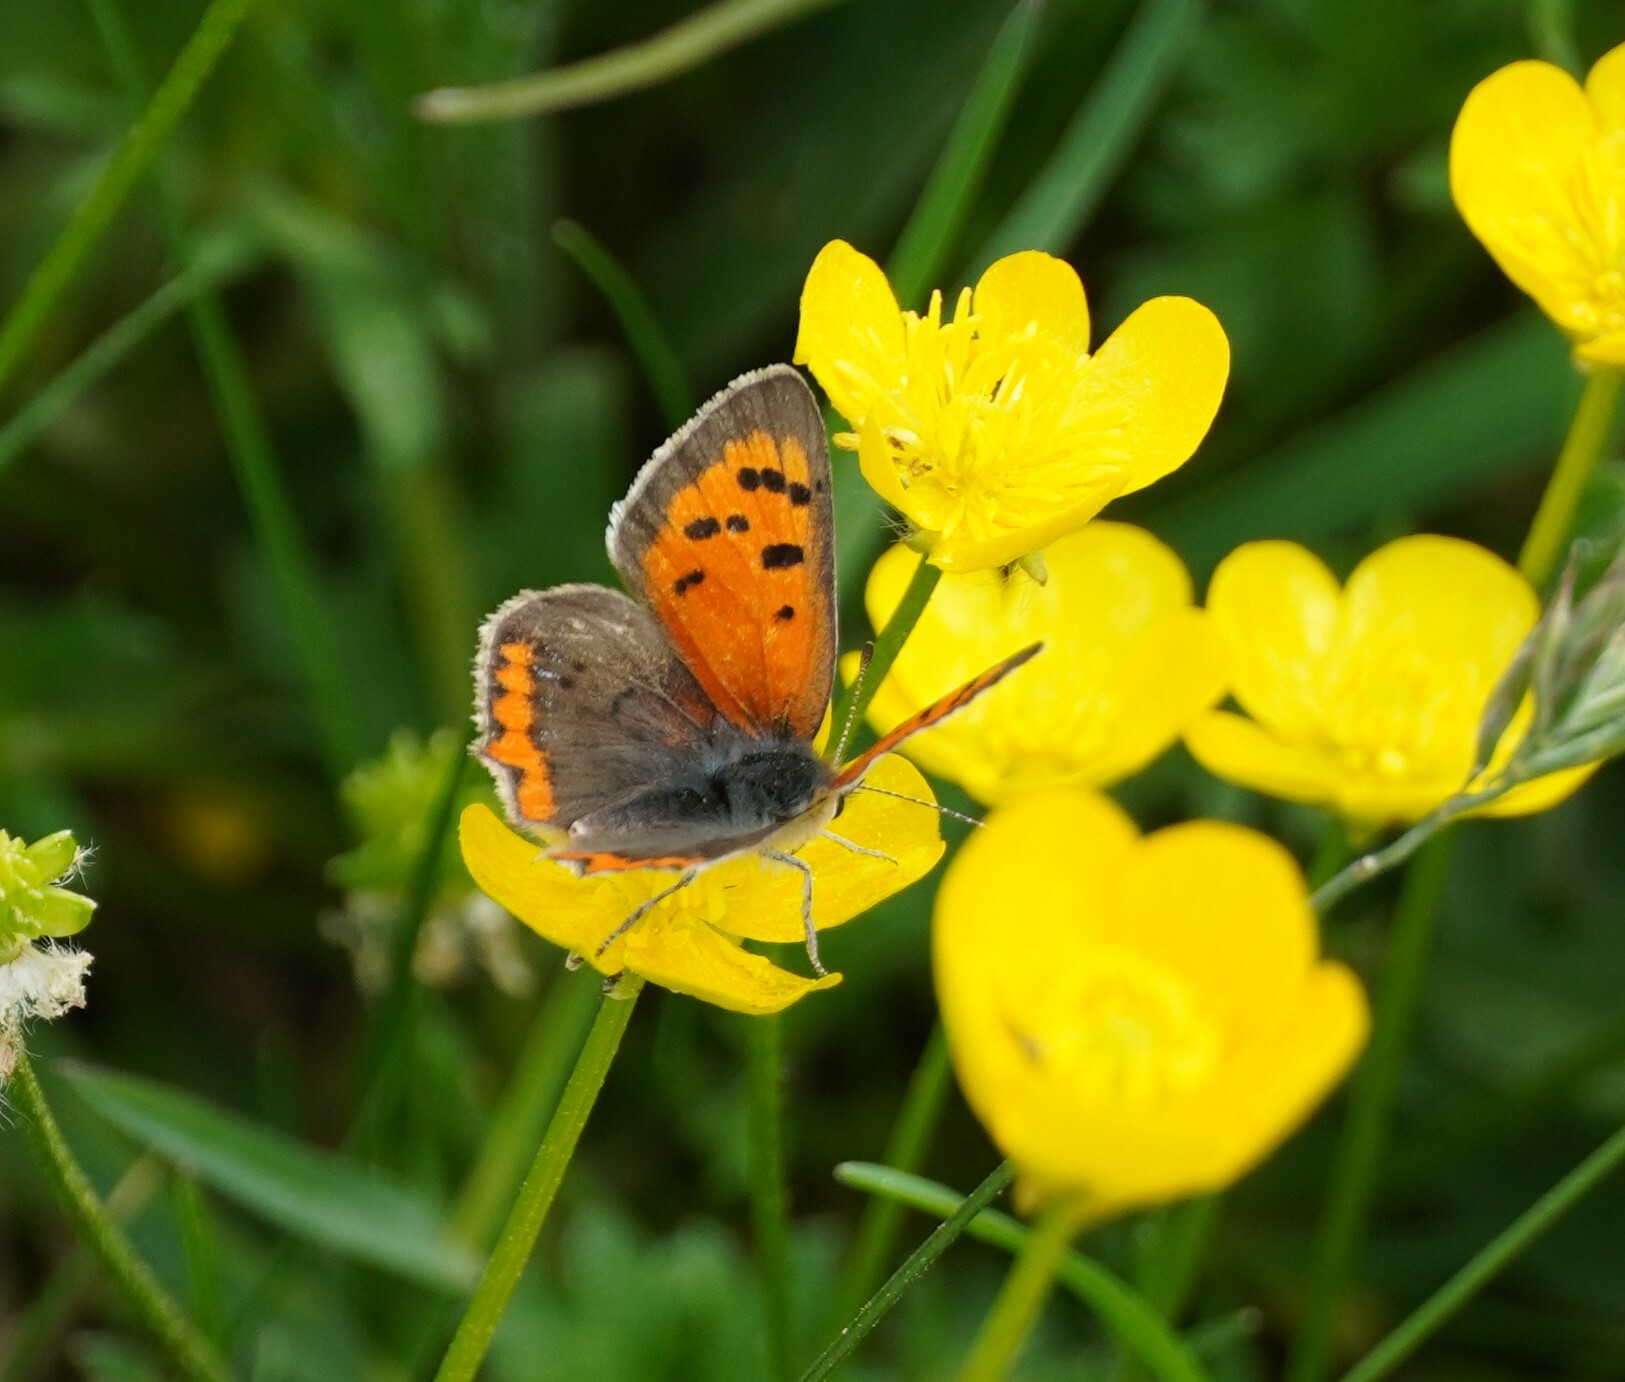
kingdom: Animalia
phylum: Arthropoda
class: Insecta
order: Lepidoptera
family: Lycaenidae
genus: Lycaena
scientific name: Lycaena phlaeas
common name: Small copper
